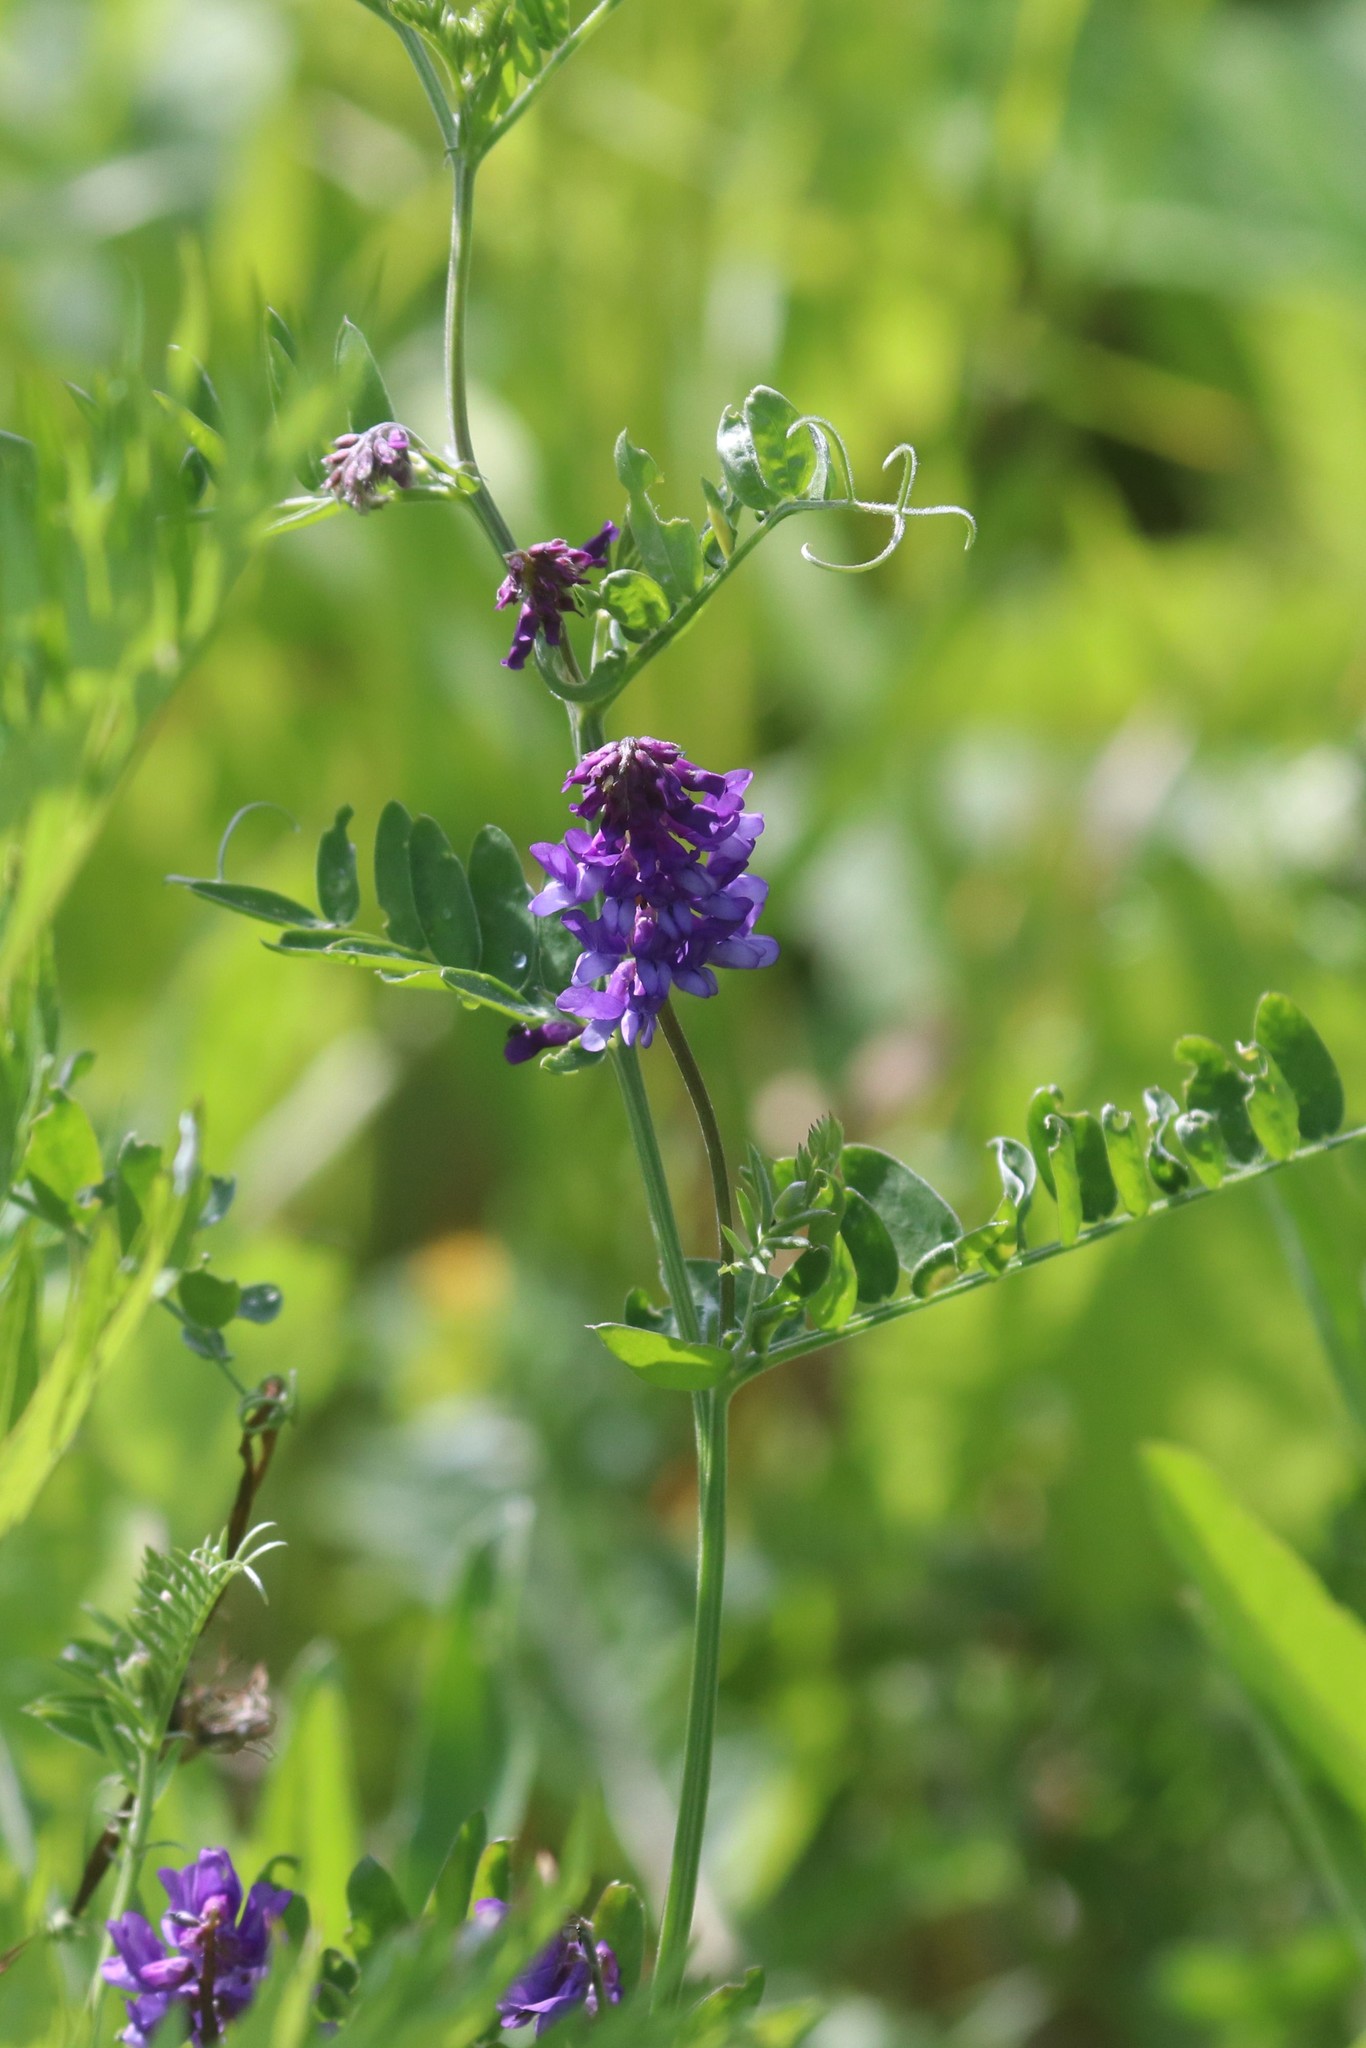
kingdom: Plantae
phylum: Tracheophyta
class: Magnoliopsida
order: Fabales
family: Fabaceae
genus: Vicia
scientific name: Vicia cracca
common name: Bird vetch
